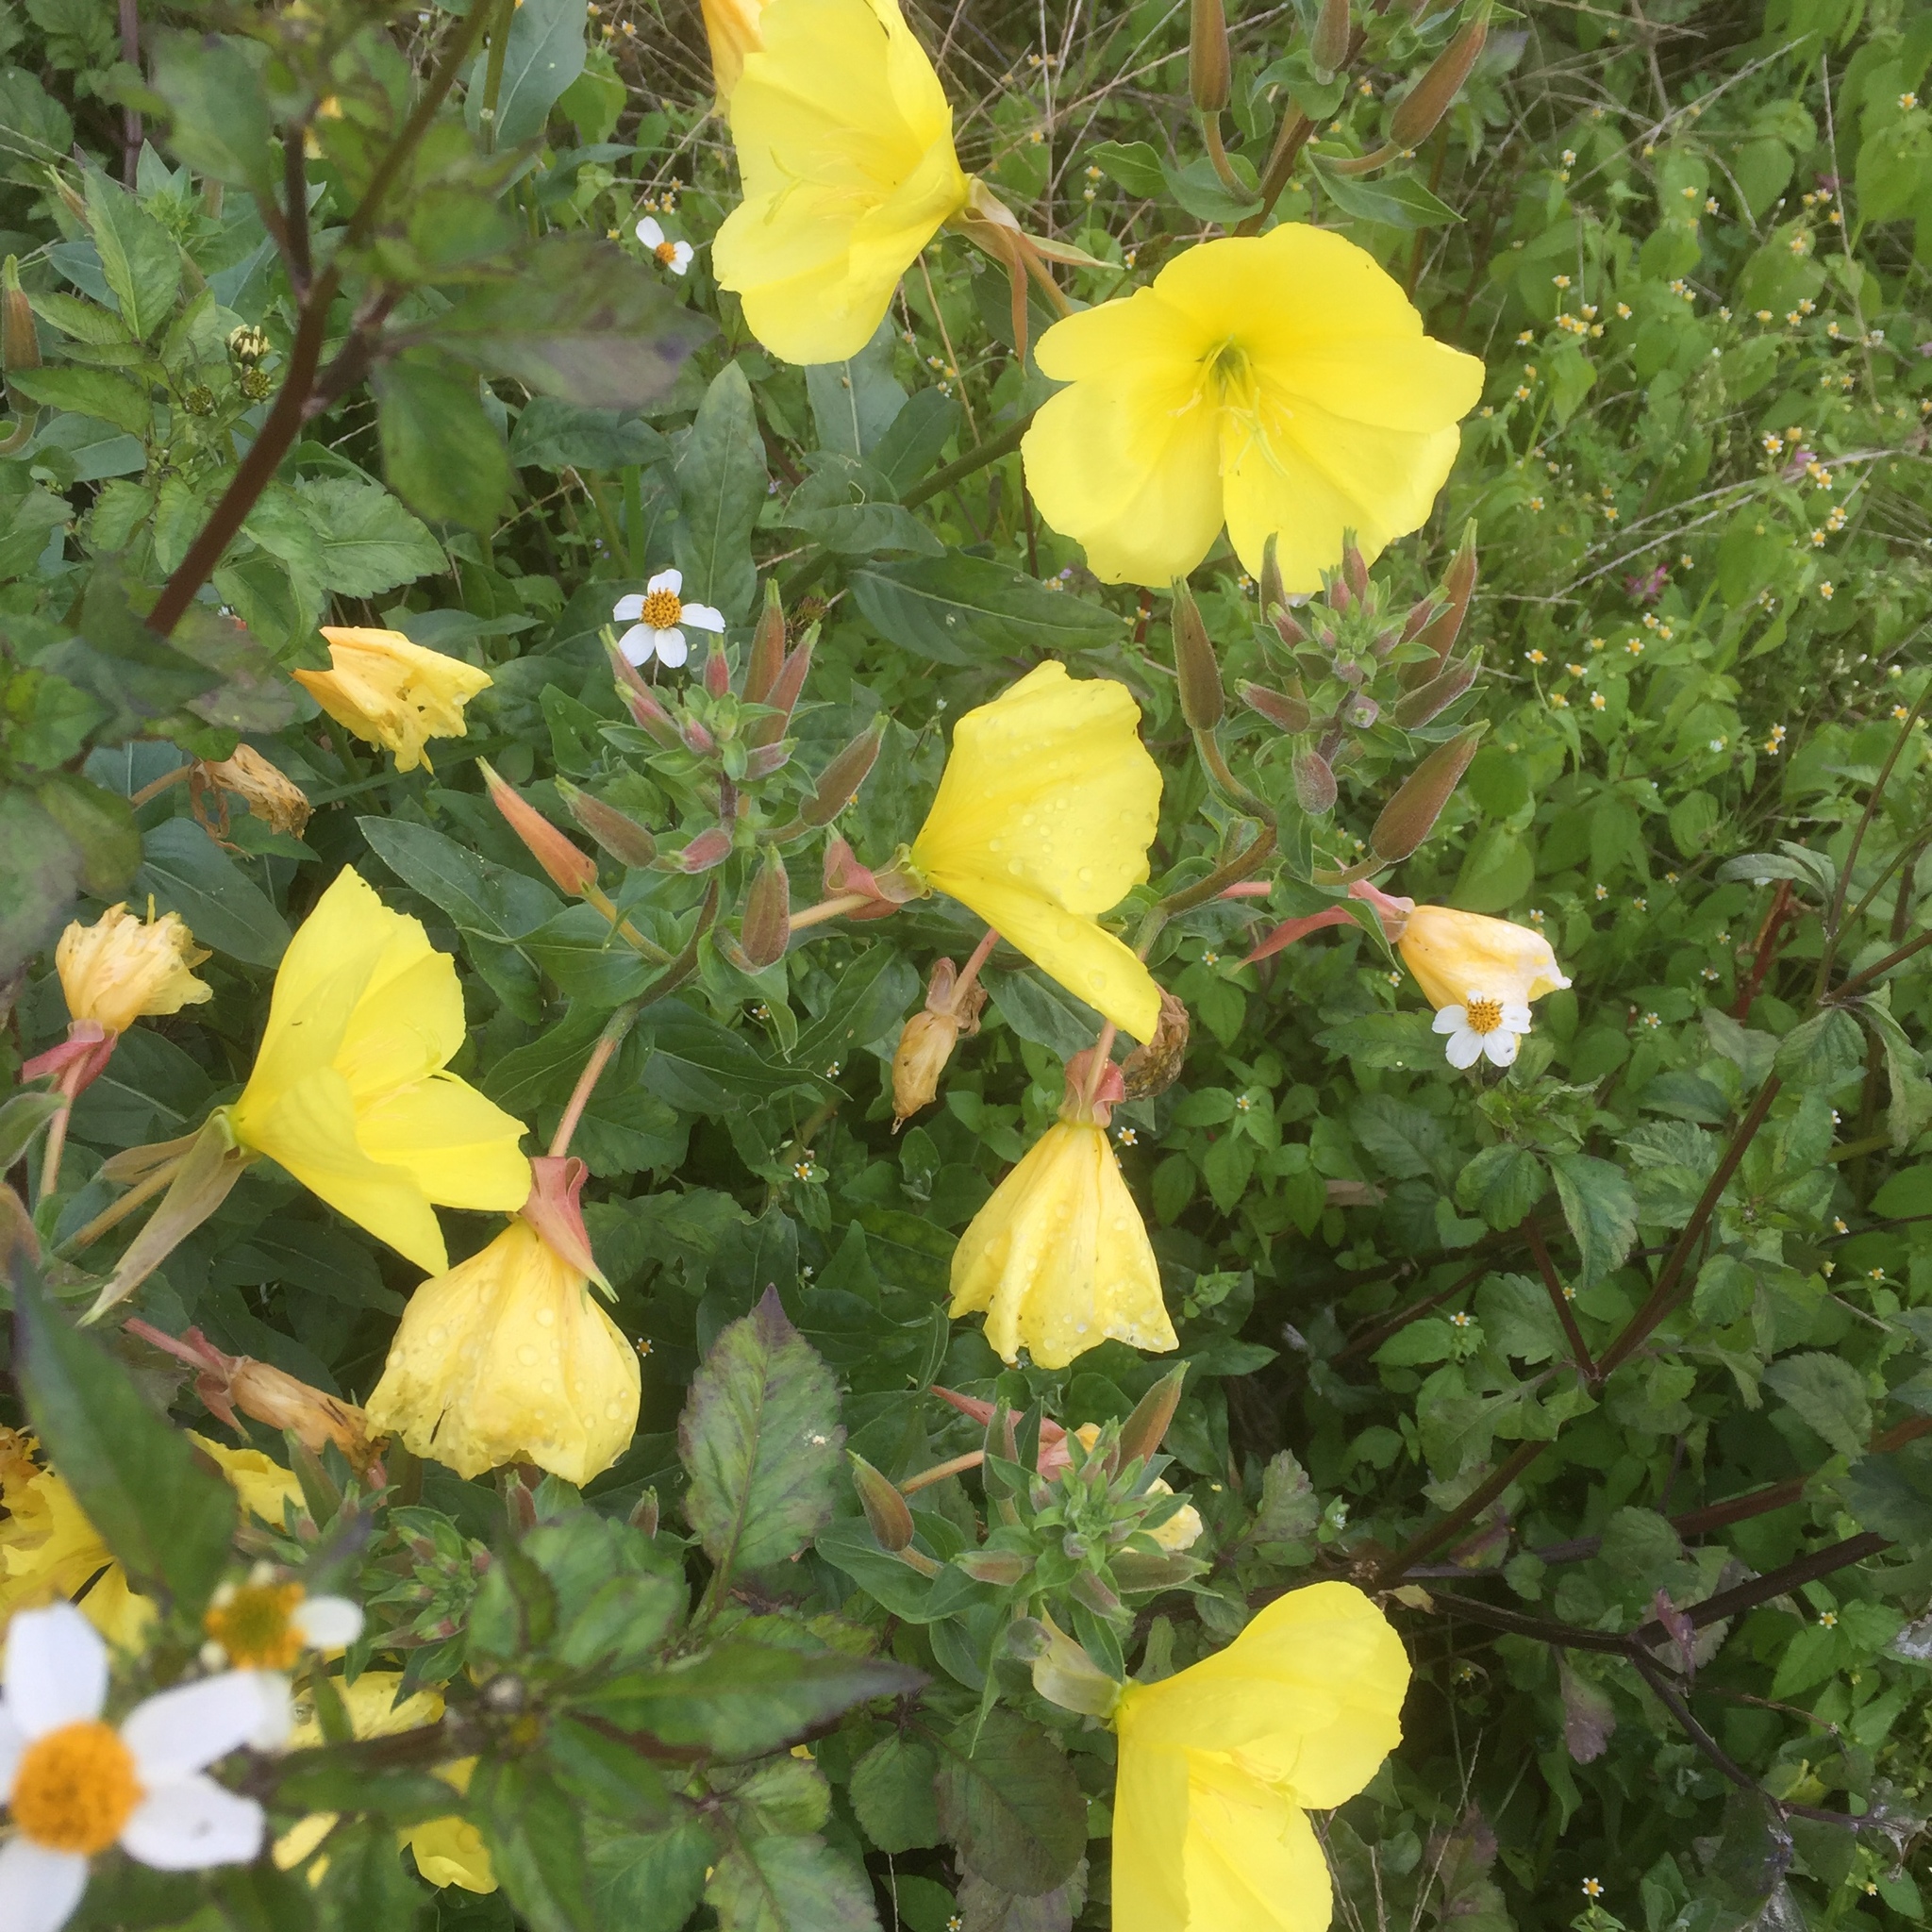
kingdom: Plantae
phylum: Tracheophyta
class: Magnoliopsida
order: Myrtales
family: Onagraceae
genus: Oenothera
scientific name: Oenothera glazioviana
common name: Large-flowered evening-primrose
